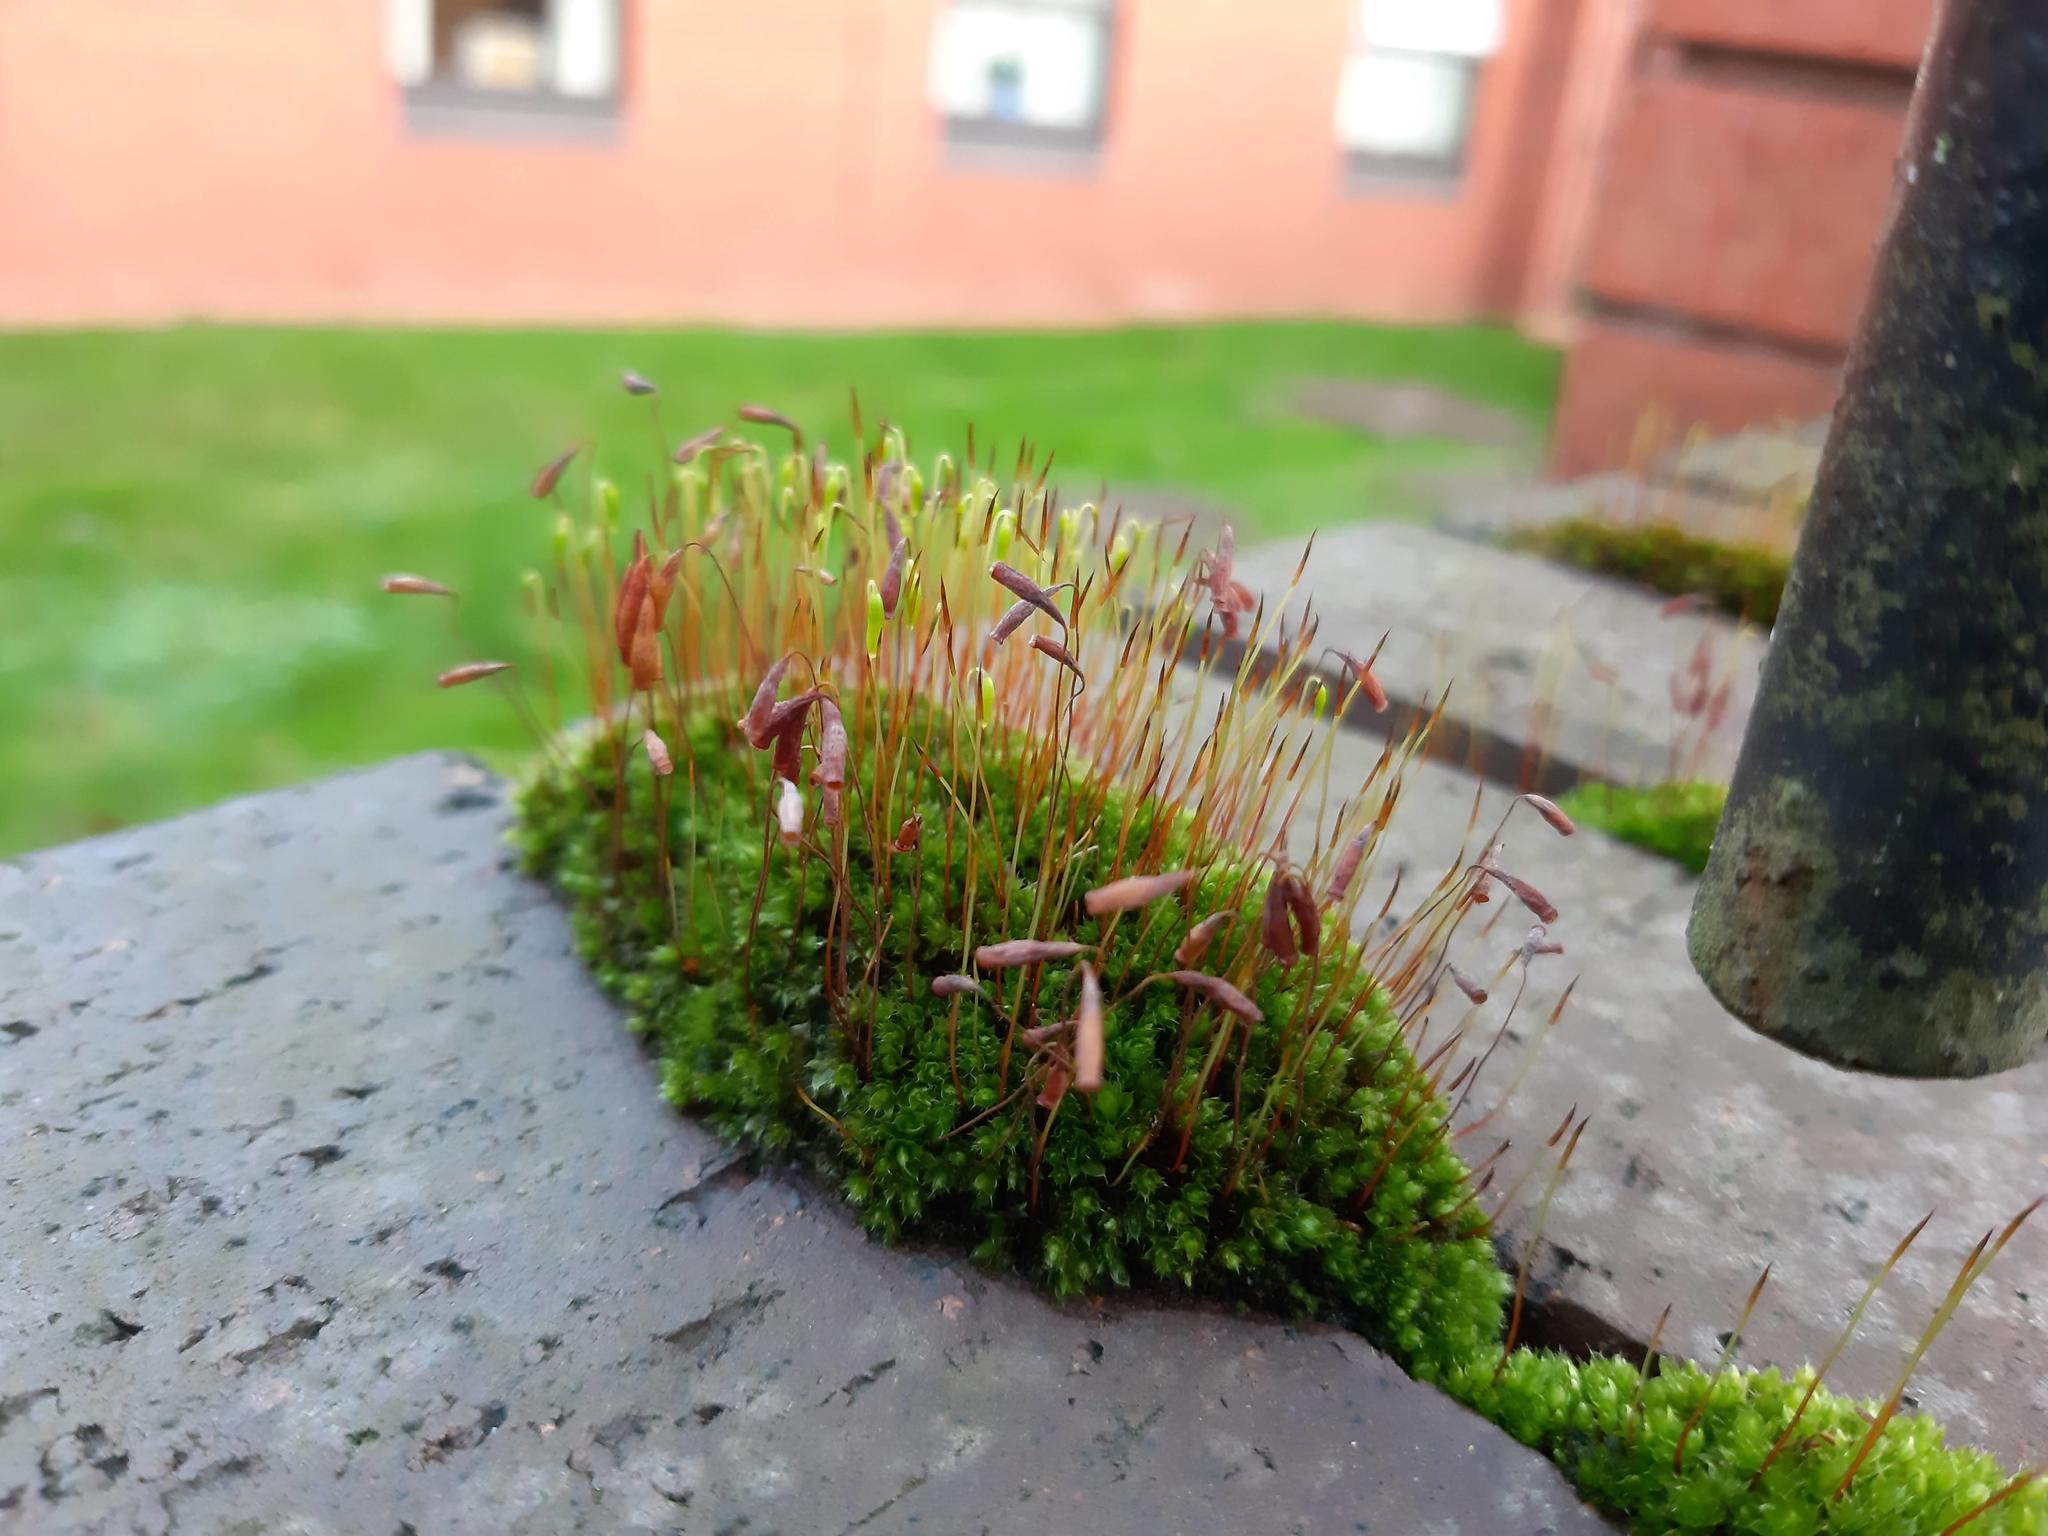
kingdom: Plantae
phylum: Bryophyta
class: Bryopsida
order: Bryales
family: Bryaceae
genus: Rosulabryum
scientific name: Rosulabryum capillare
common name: Capillary thread-moss
